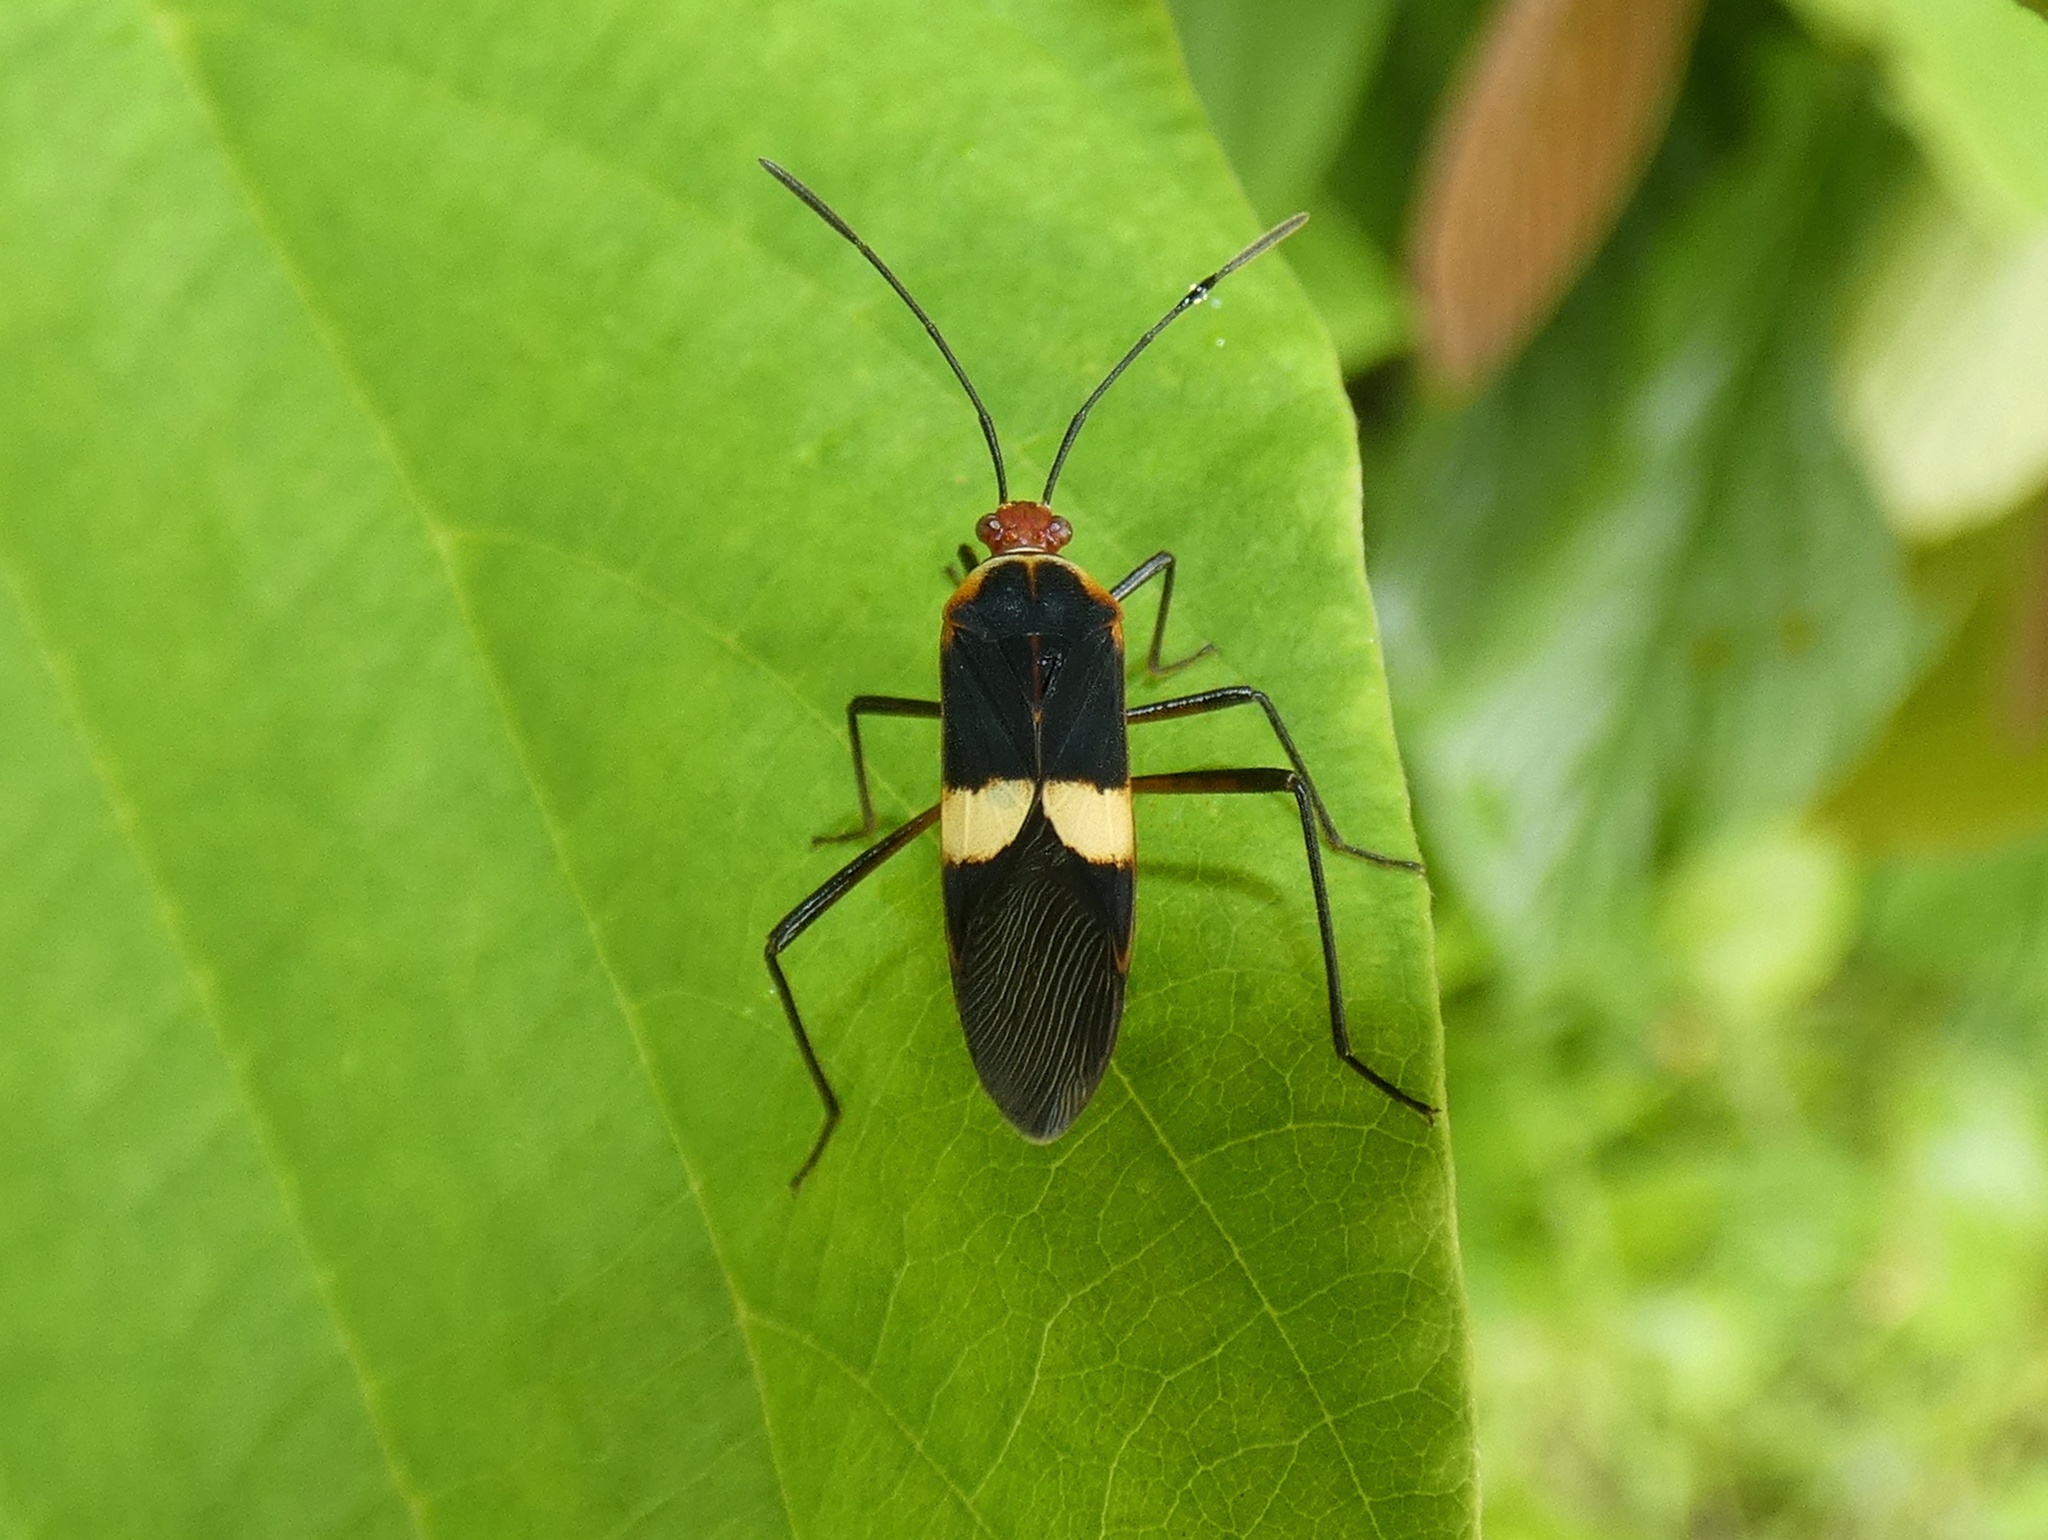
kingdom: Animalia
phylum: Arthropoda
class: Insecta
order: Hemiptera
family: Coreidae
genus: Hypselonotus
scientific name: Hypselonotus interruptus
